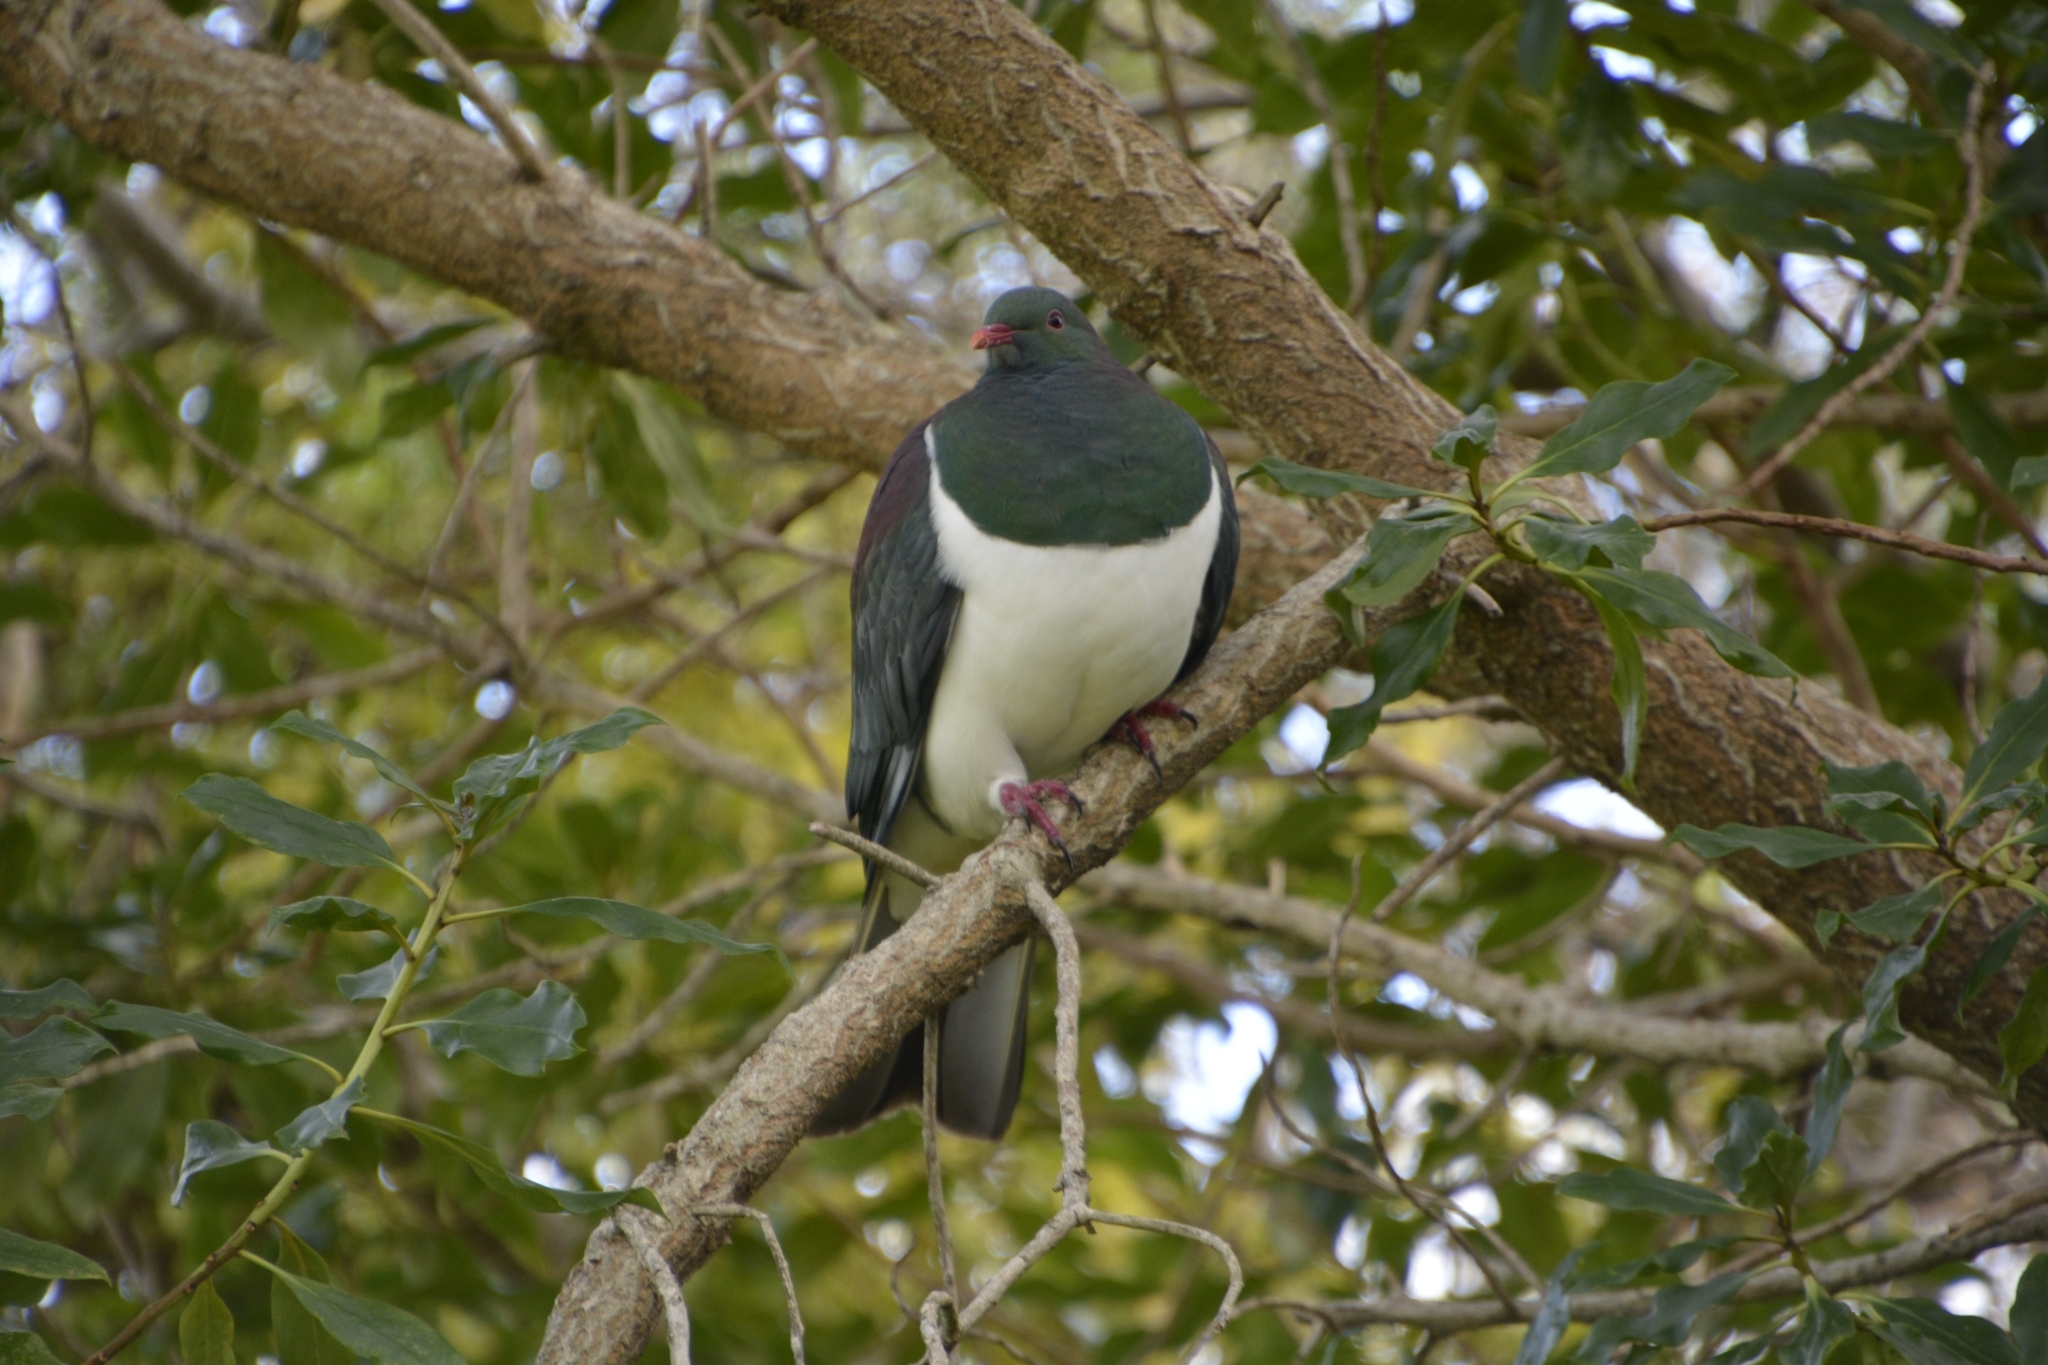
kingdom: Animalia
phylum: Chordata
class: Aves
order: Columbiformes
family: Columbidae
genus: Hemiphaga
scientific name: Hemiphaga novaeseelandiae
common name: New zealand pigeon
